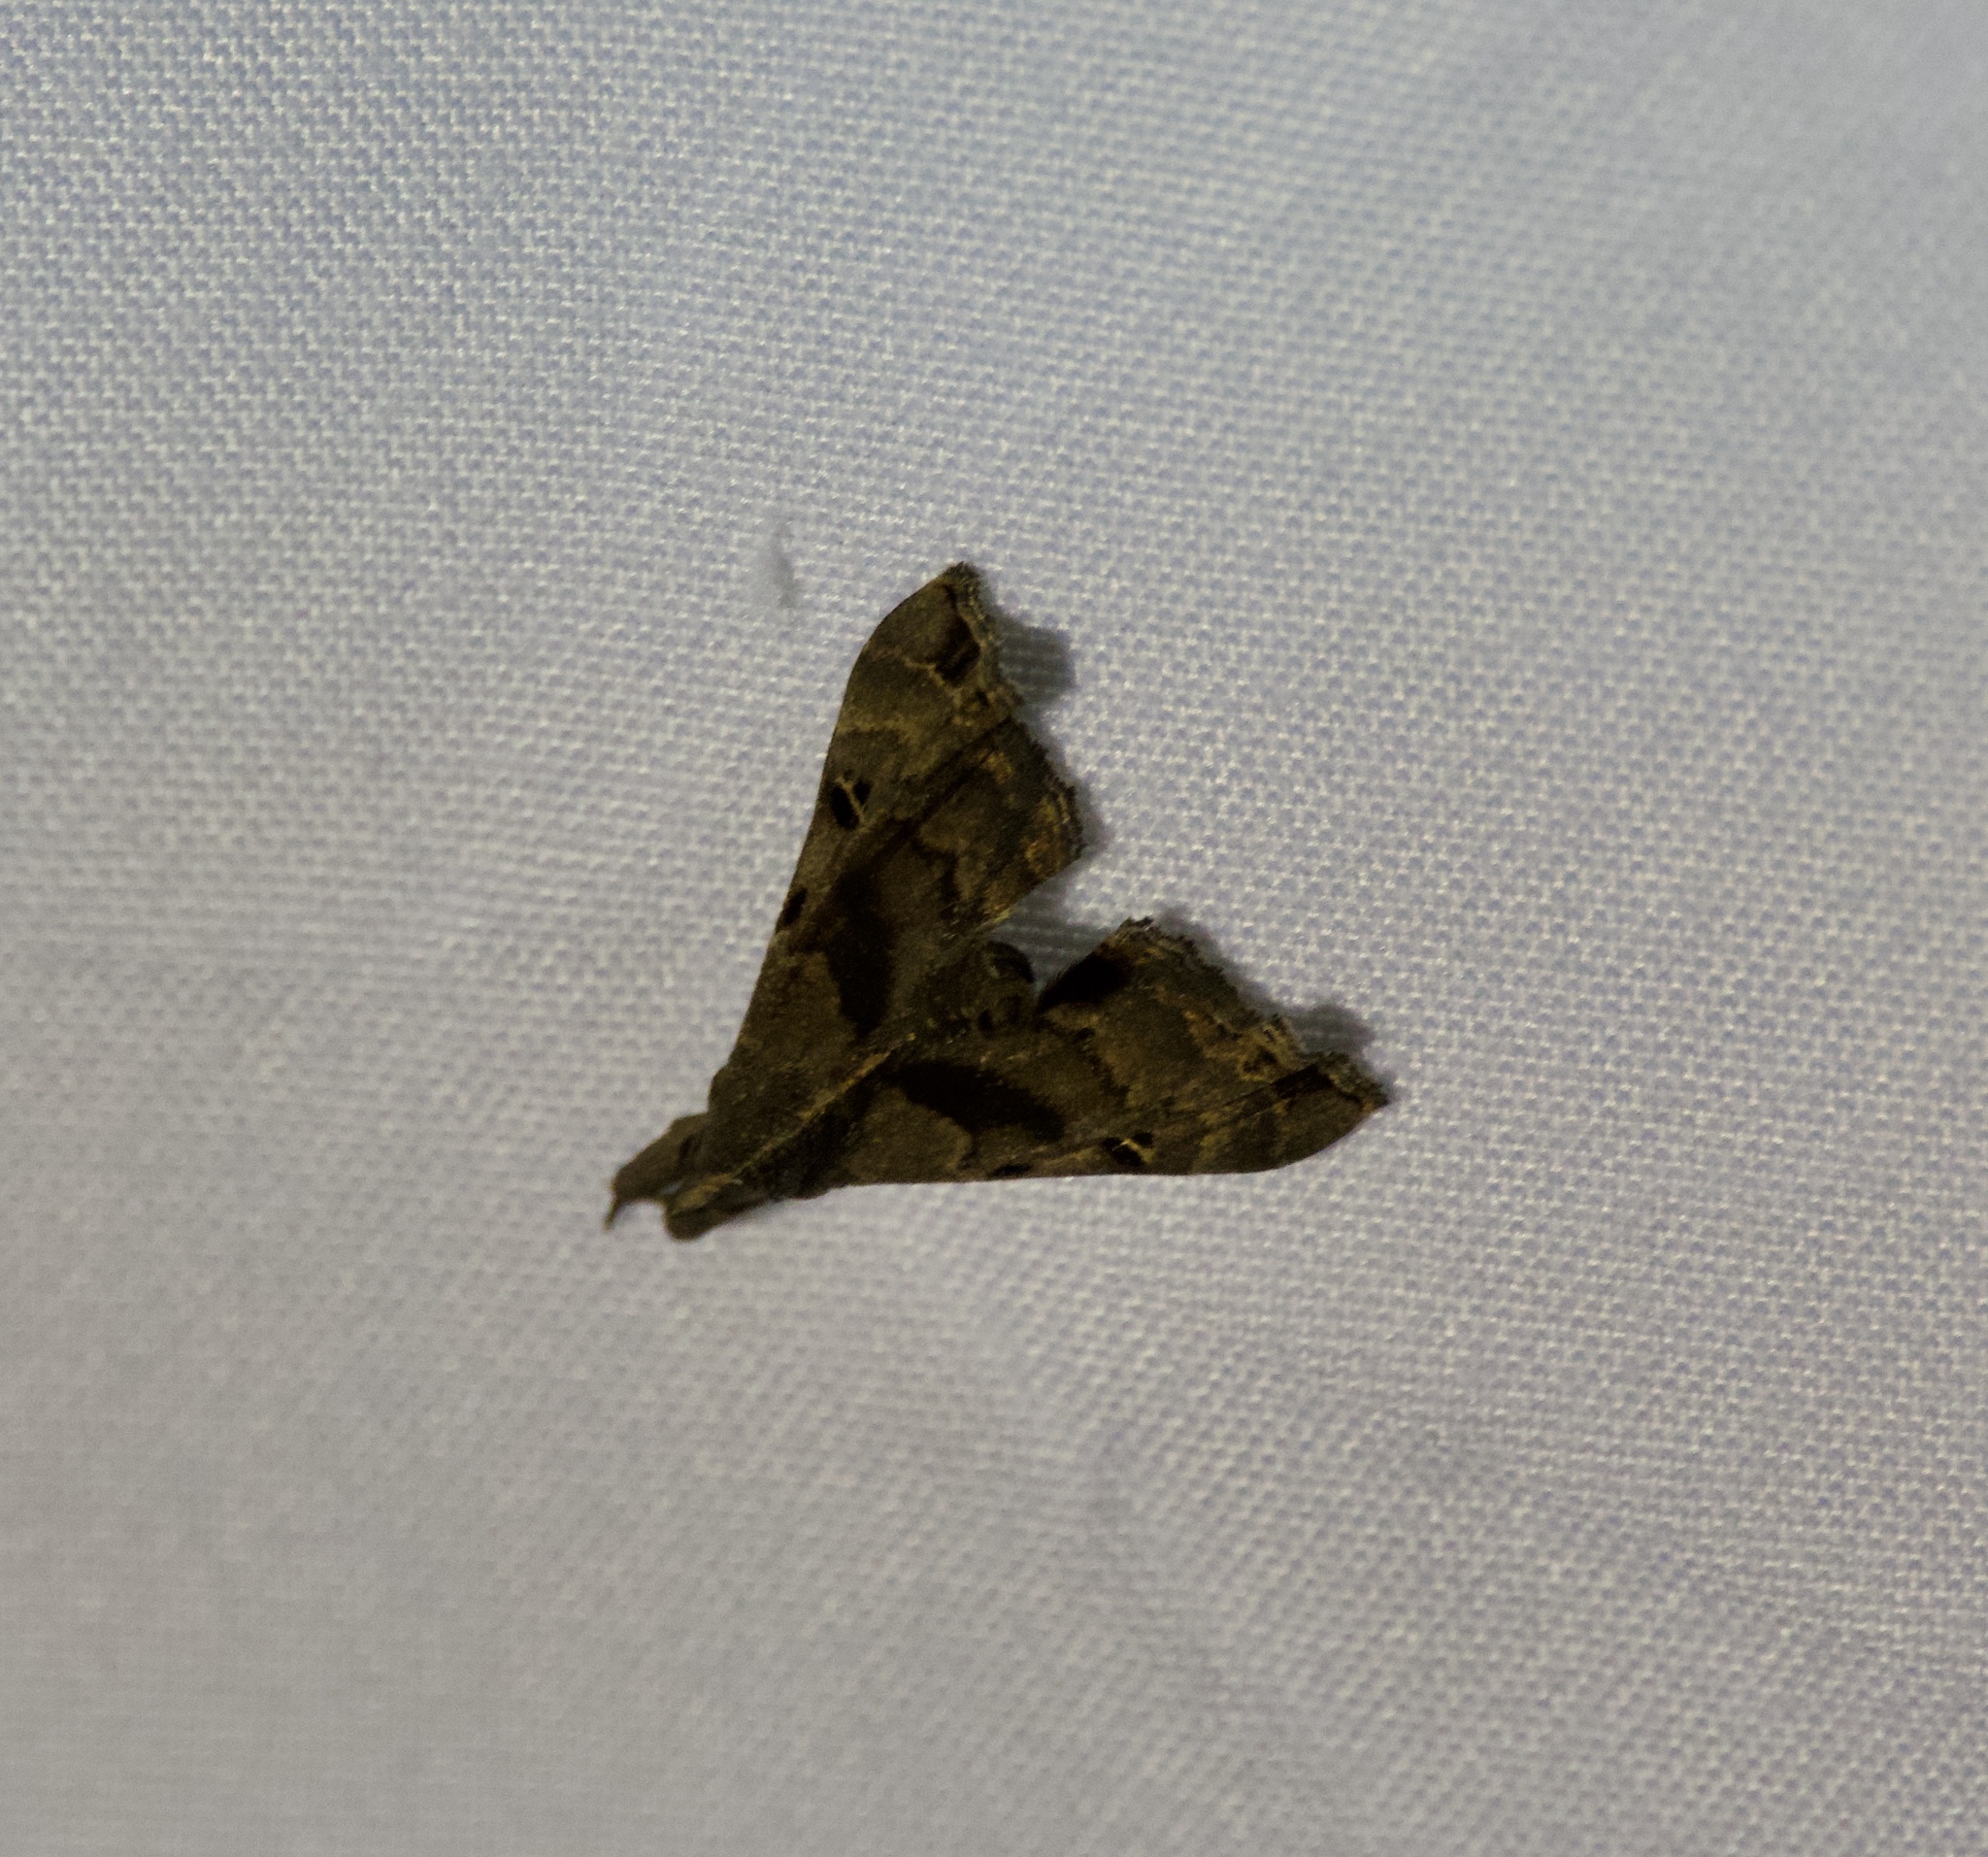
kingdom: Animalia
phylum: Arthropoda
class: Insecta
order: Lepidoptera
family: Erebidae
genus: Palthis
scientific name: Palthis asopialis
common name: Faint-spotted palthis moth
